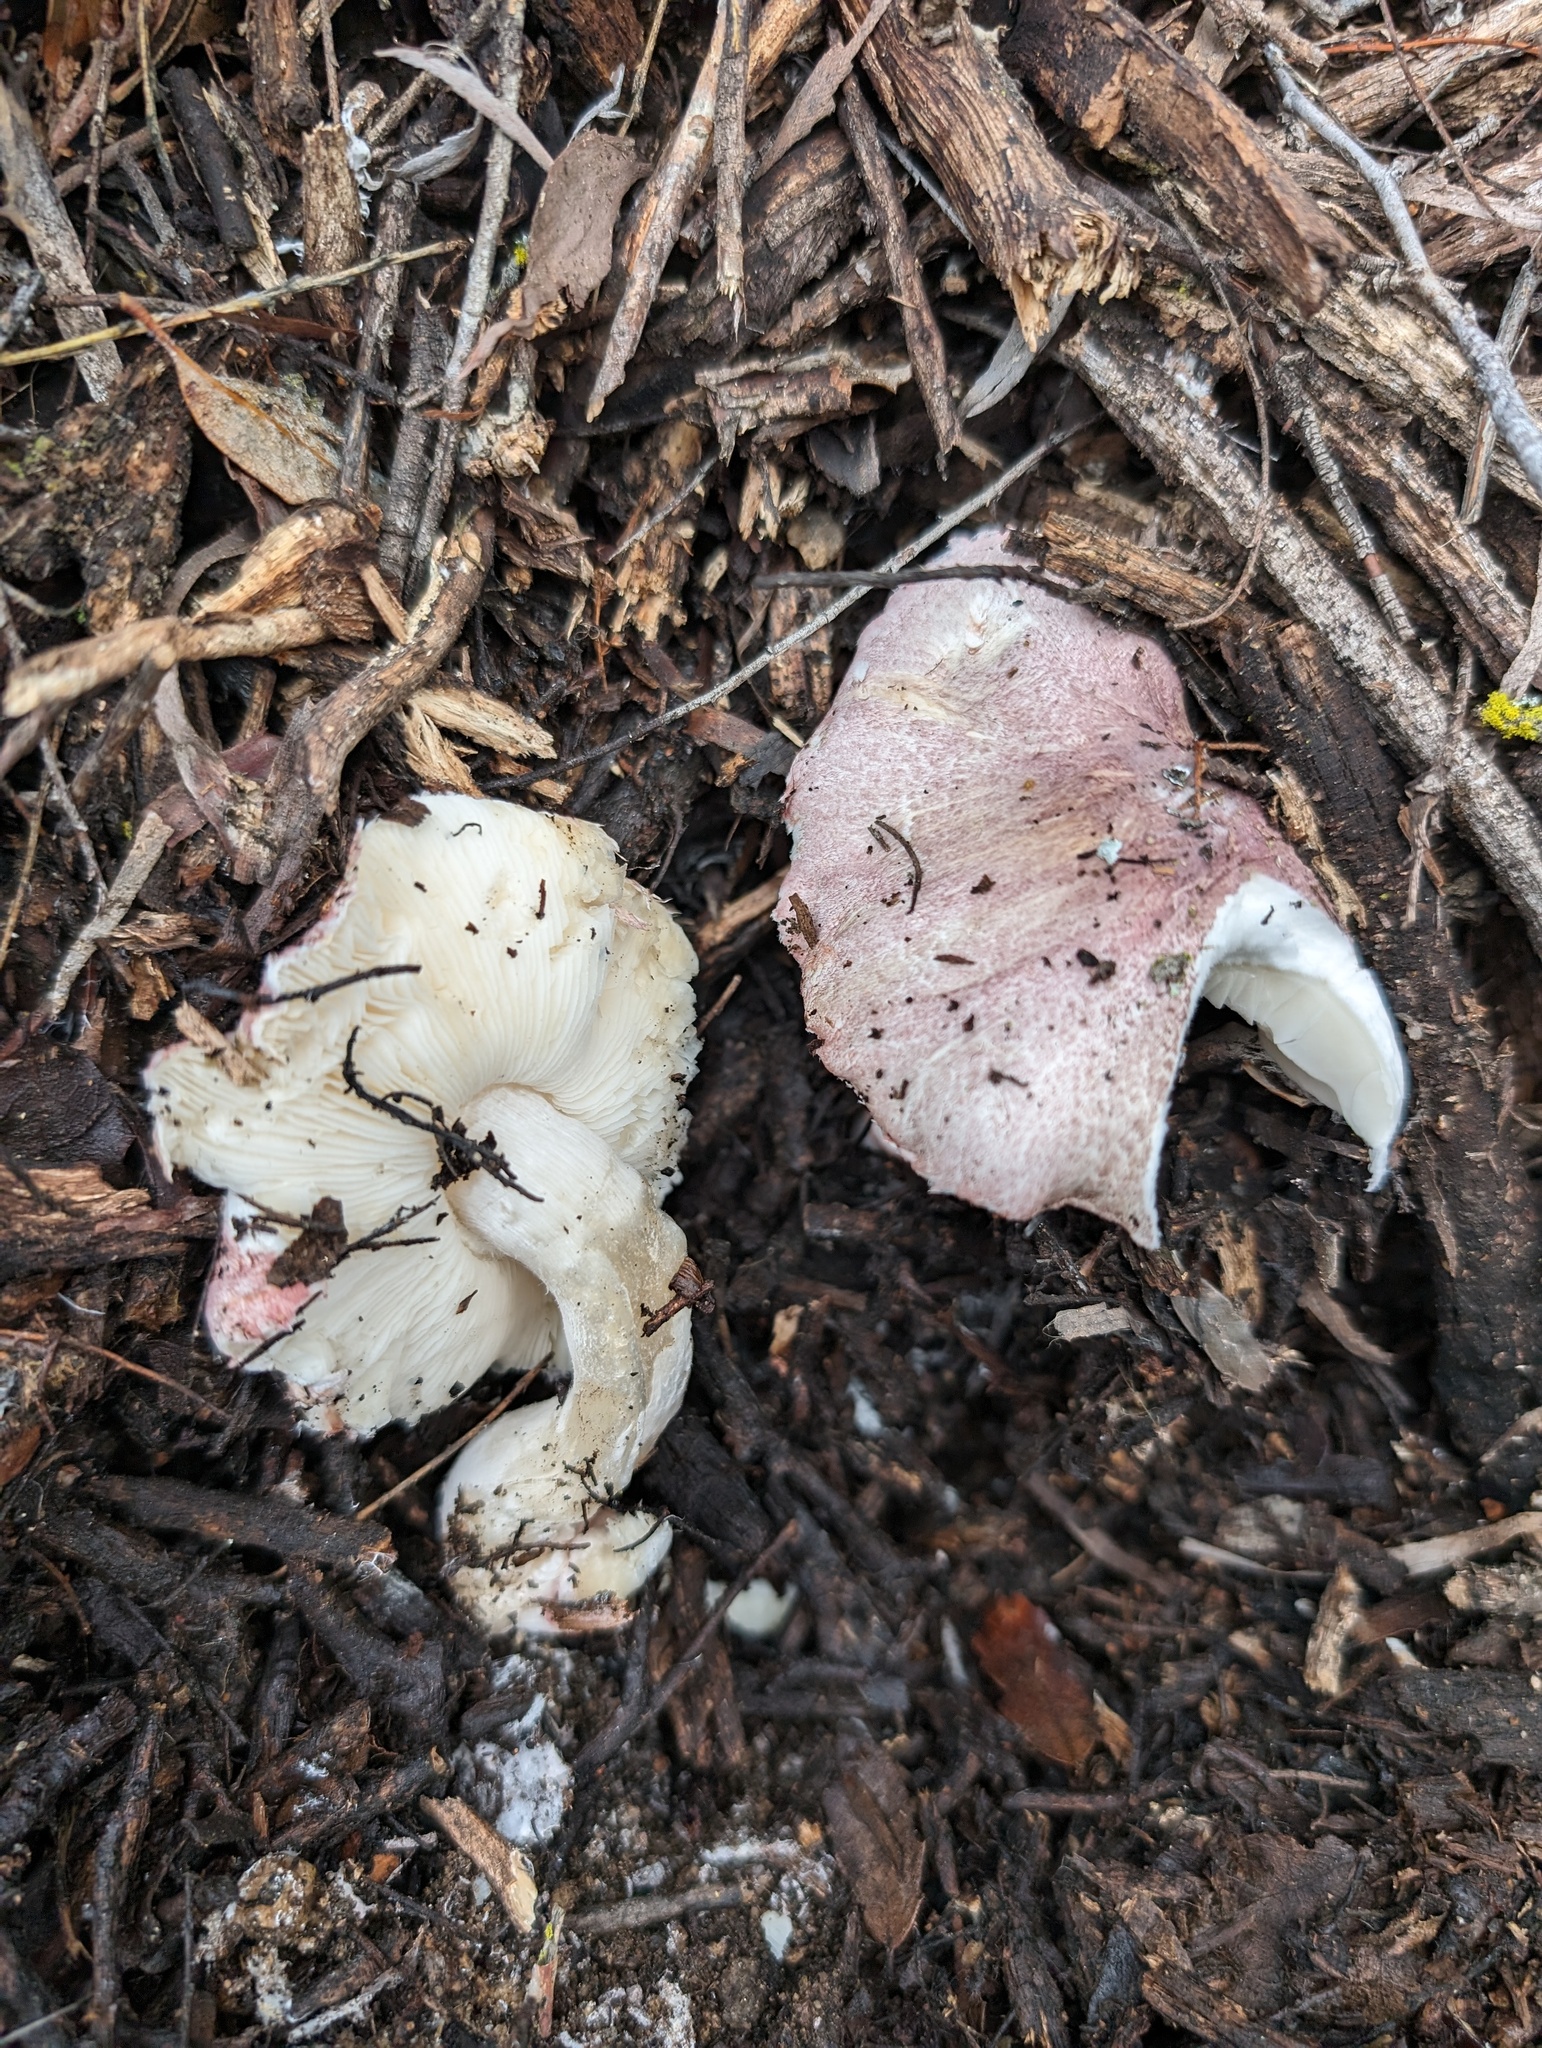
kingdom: Fungi
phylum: Basidiomycota
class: Agaricomycetes
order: Agaricales
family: Agaricaceae
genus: Lepiota
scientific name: Lepiota decorata
